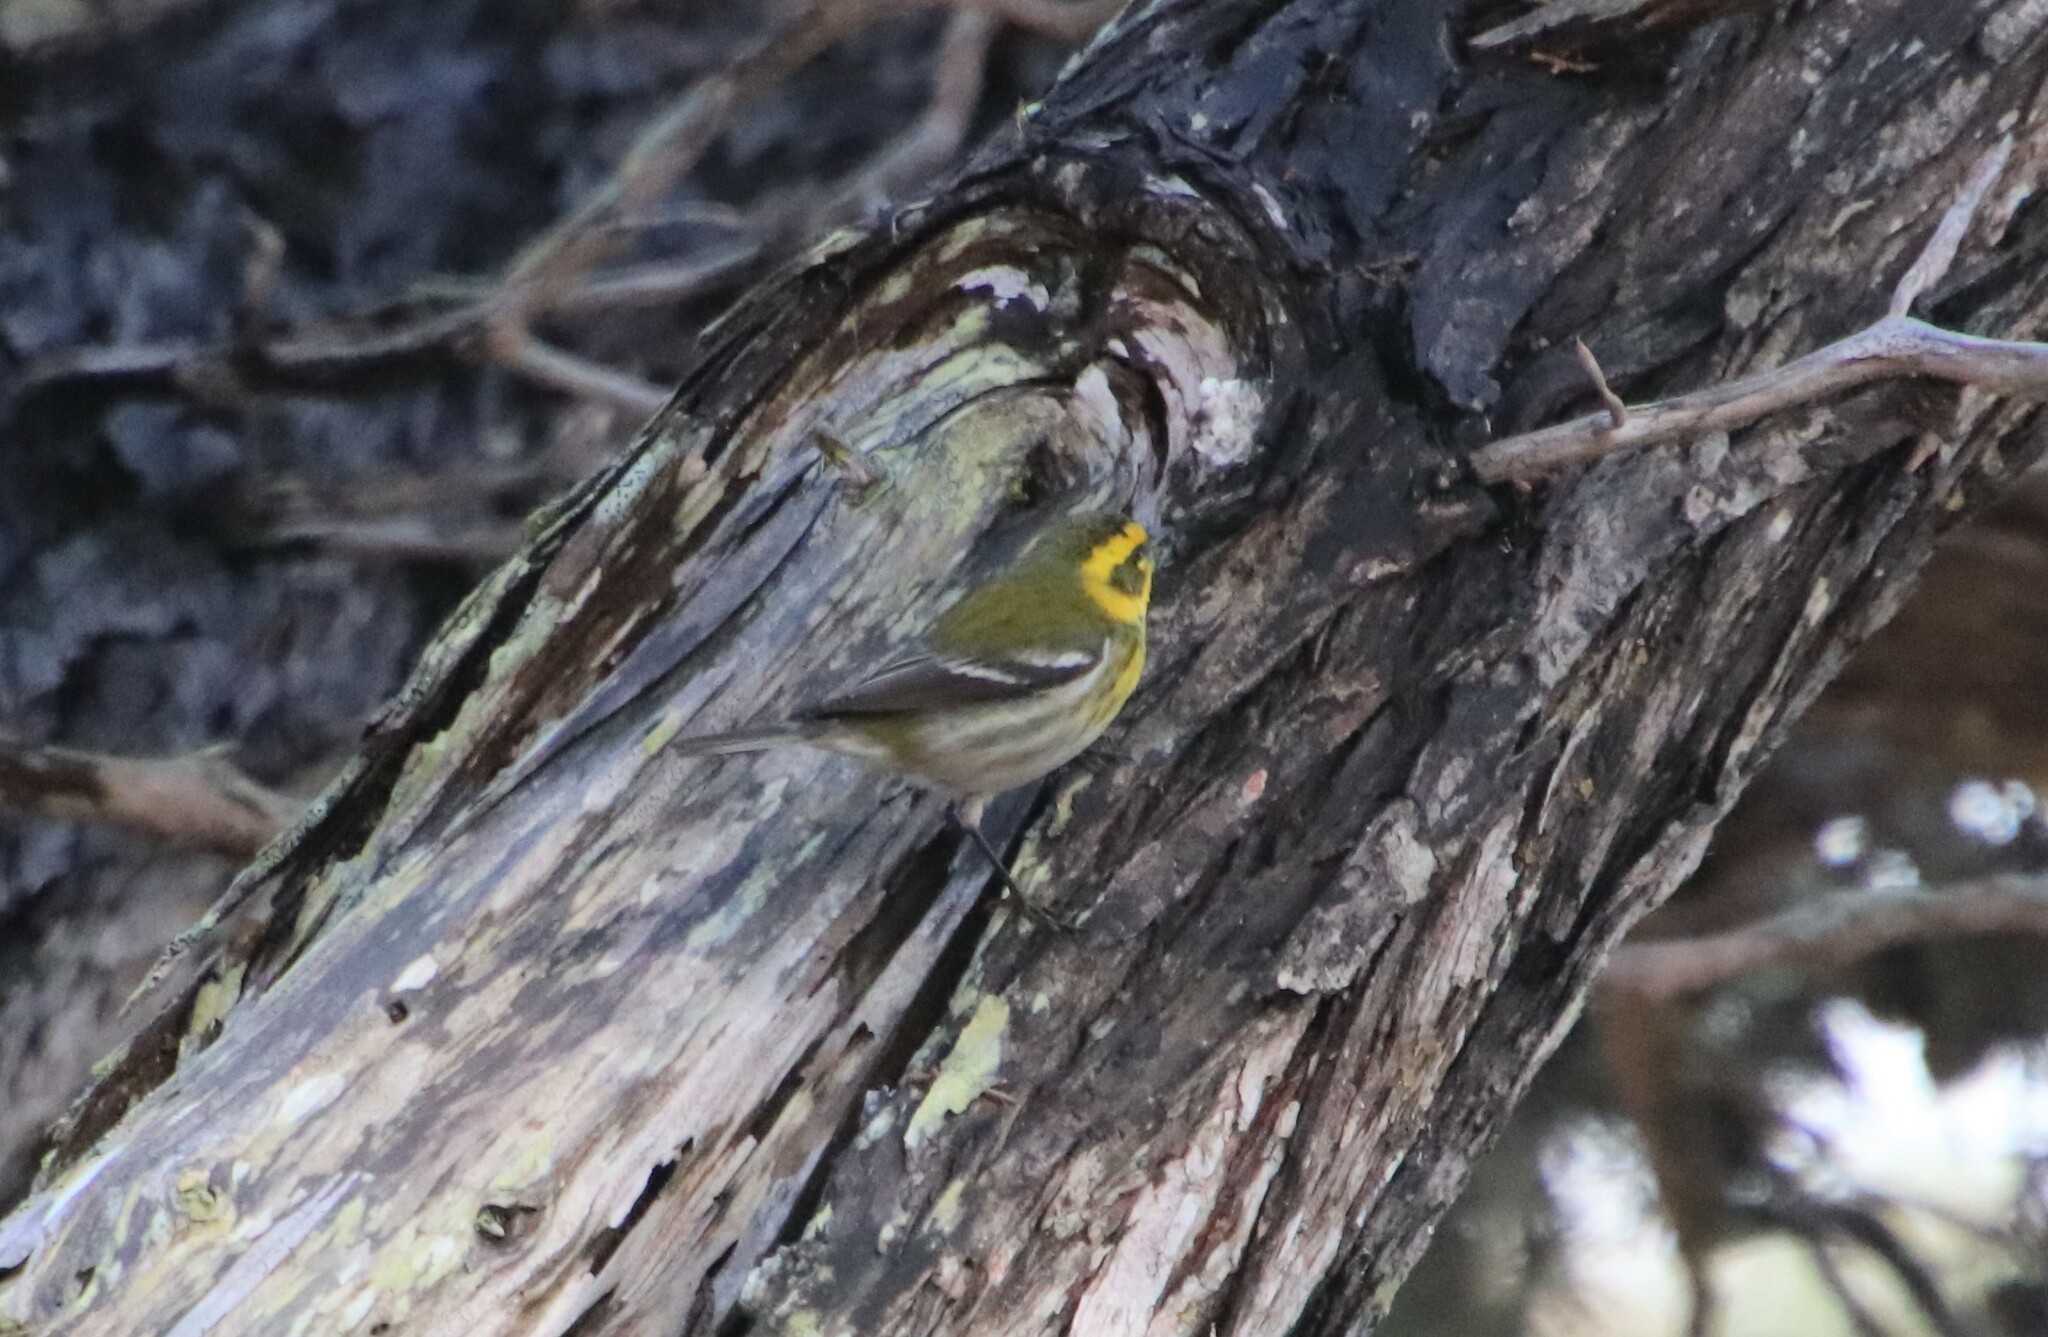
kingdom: Animalia
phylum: Chordata
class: Aves
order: Passeriformes
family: Parulidae
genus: Setophaga
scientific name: Setophaga townsendi
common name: Townsend's warbler
